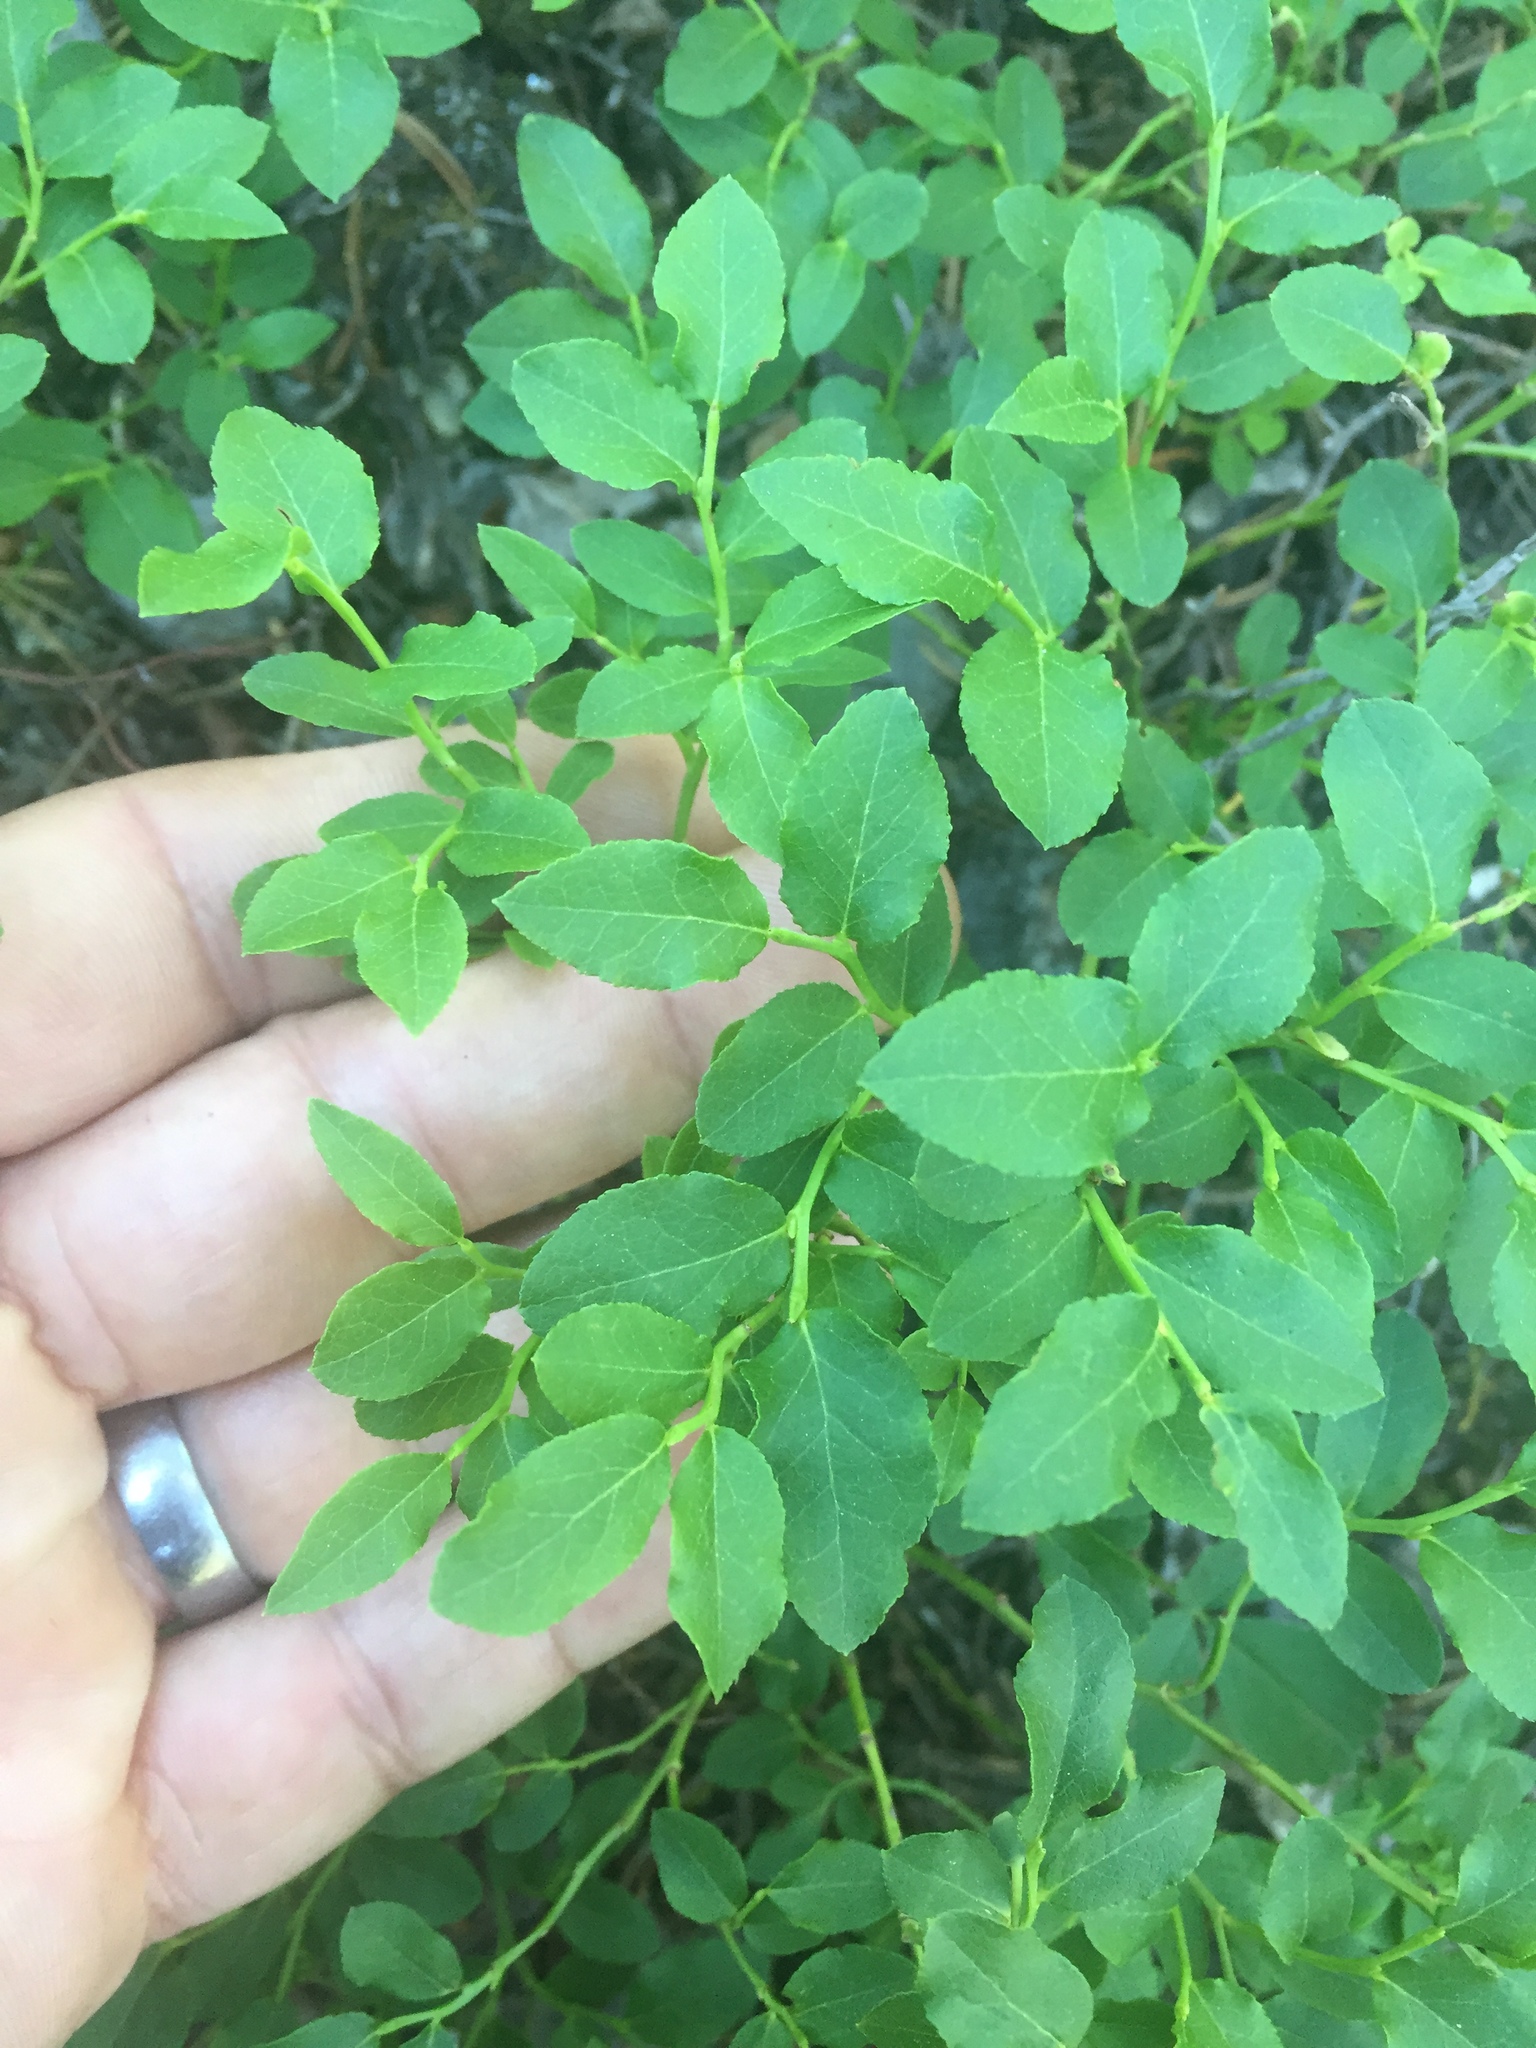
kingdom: Plantae
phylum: Tracheophyta
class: Magnoliopsida
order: Ericales
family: Ericaceae
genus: Vaccinium
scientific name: Vaccinium myrtillus
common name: Bilberry
